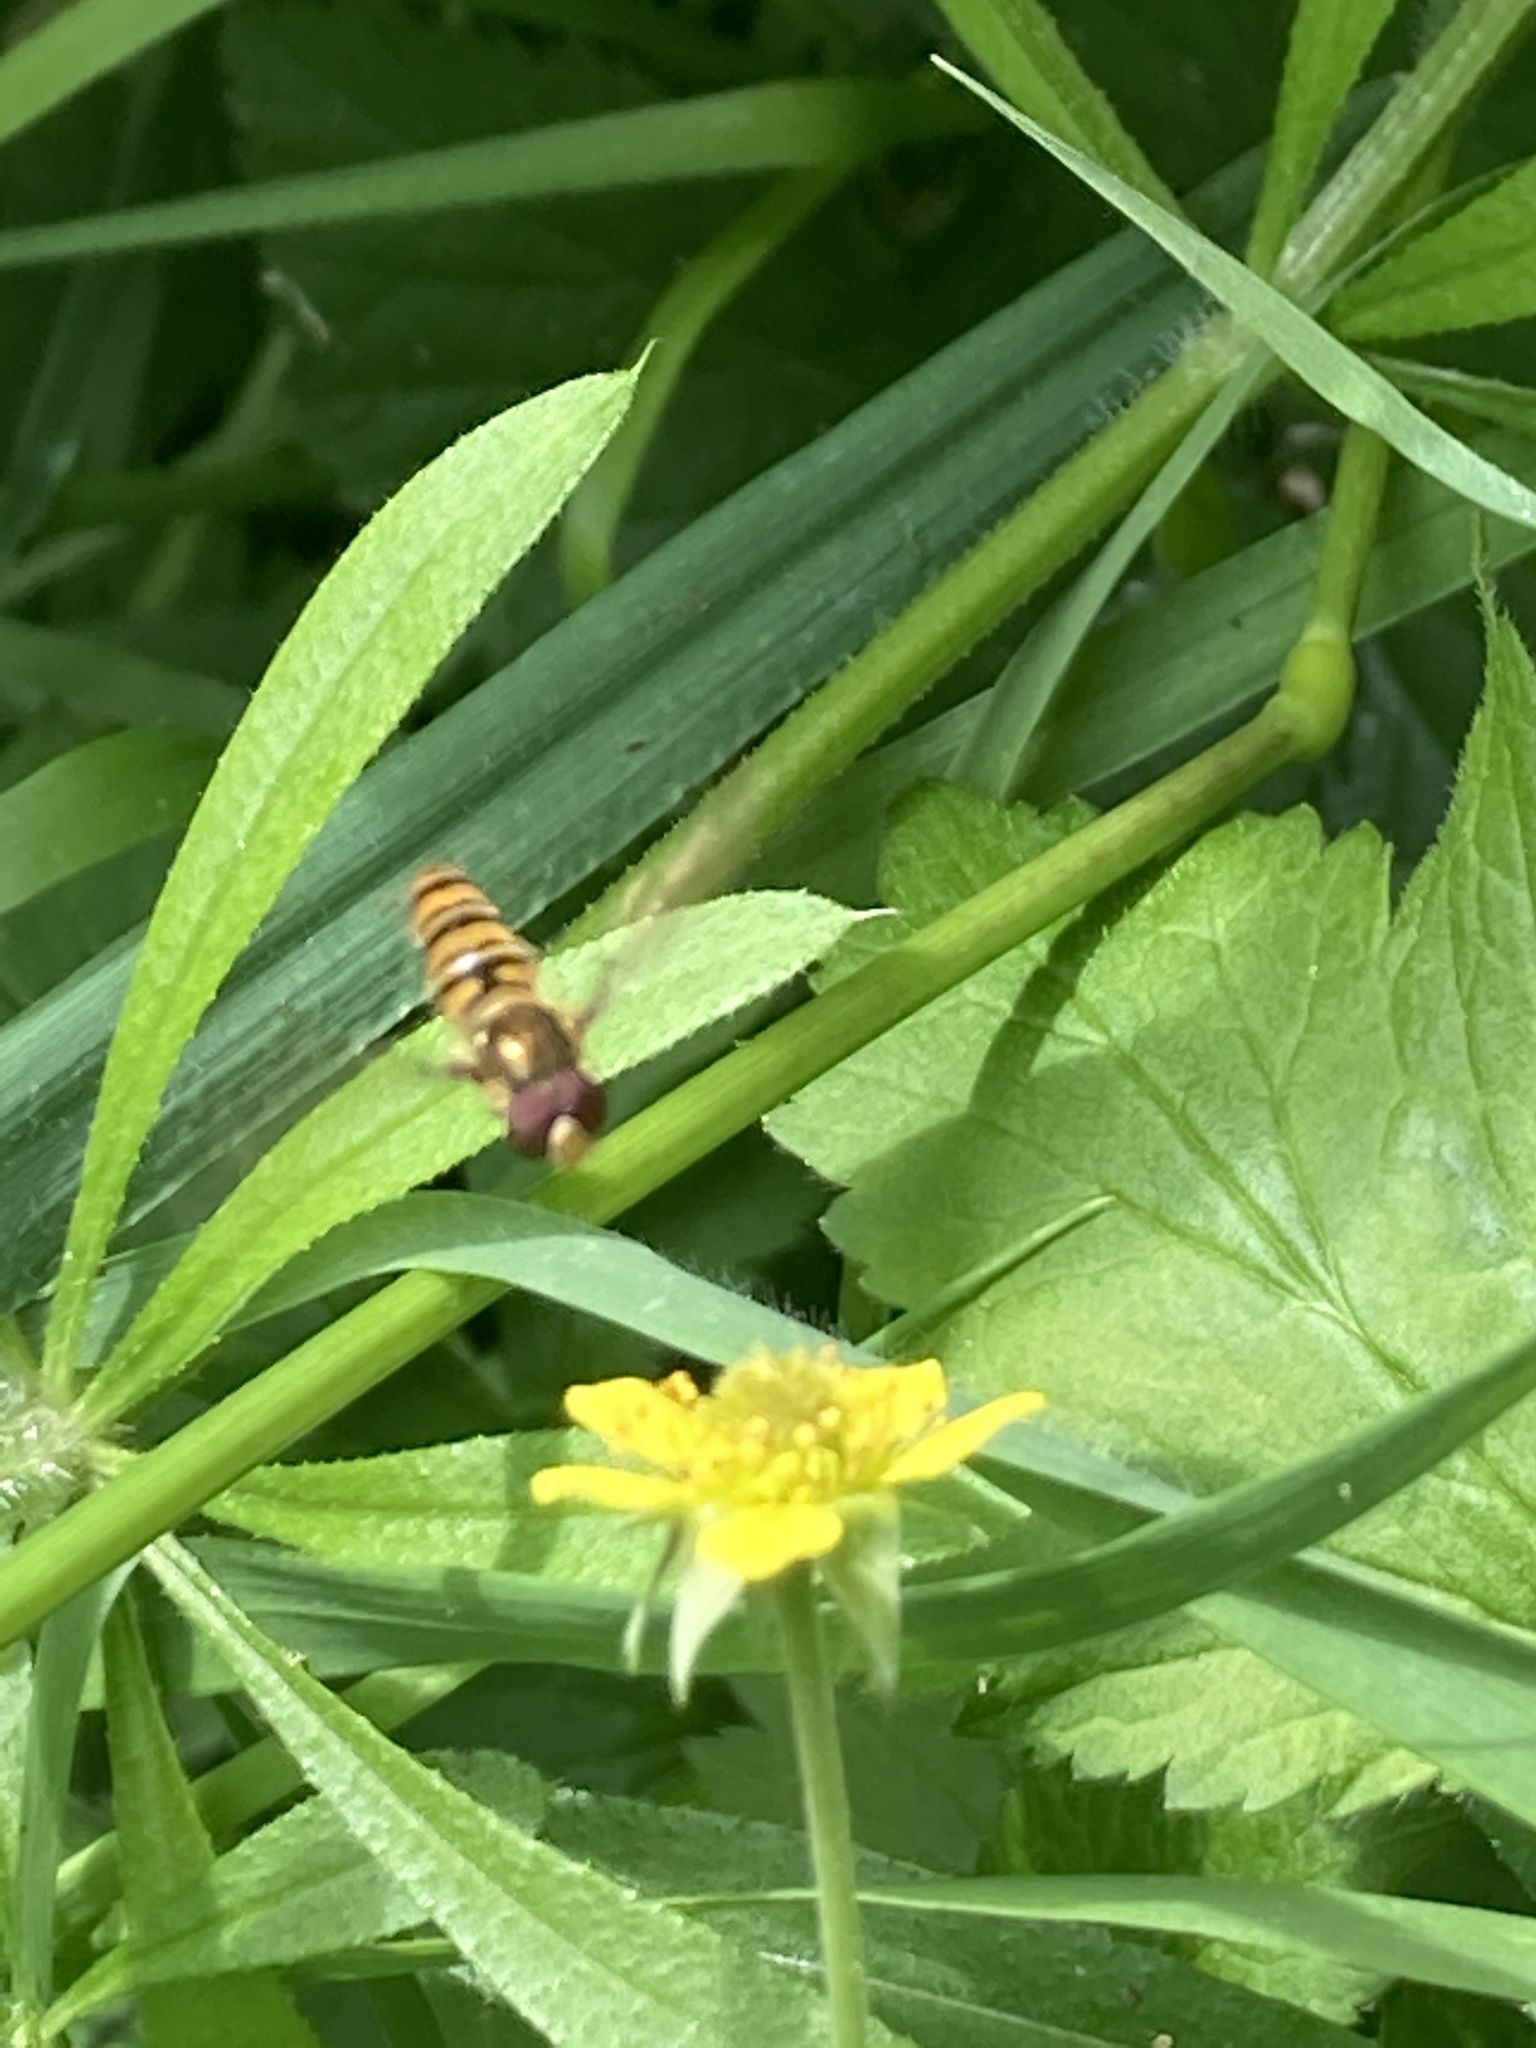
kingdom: Animalia
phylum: Arthropoda
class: Insecta
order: Diptera
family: Syrphidae
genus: Episyrphus
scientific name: Episyrphus balteatus
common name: Marmalade hoverfly
